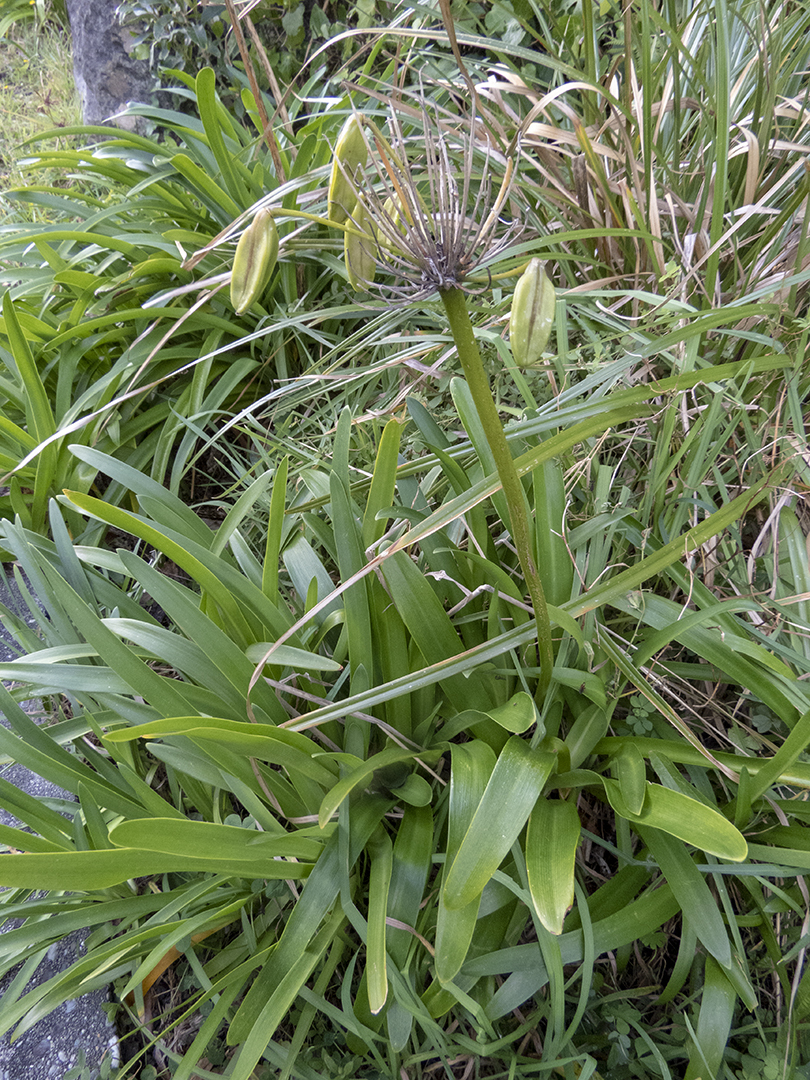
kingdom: Plantae
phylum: Tracheophyta
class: Liliopsida
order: Asparagales
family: Amaryllidaceae
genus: Agapanthus
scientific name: Agapanthus praecox
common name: African-lily
